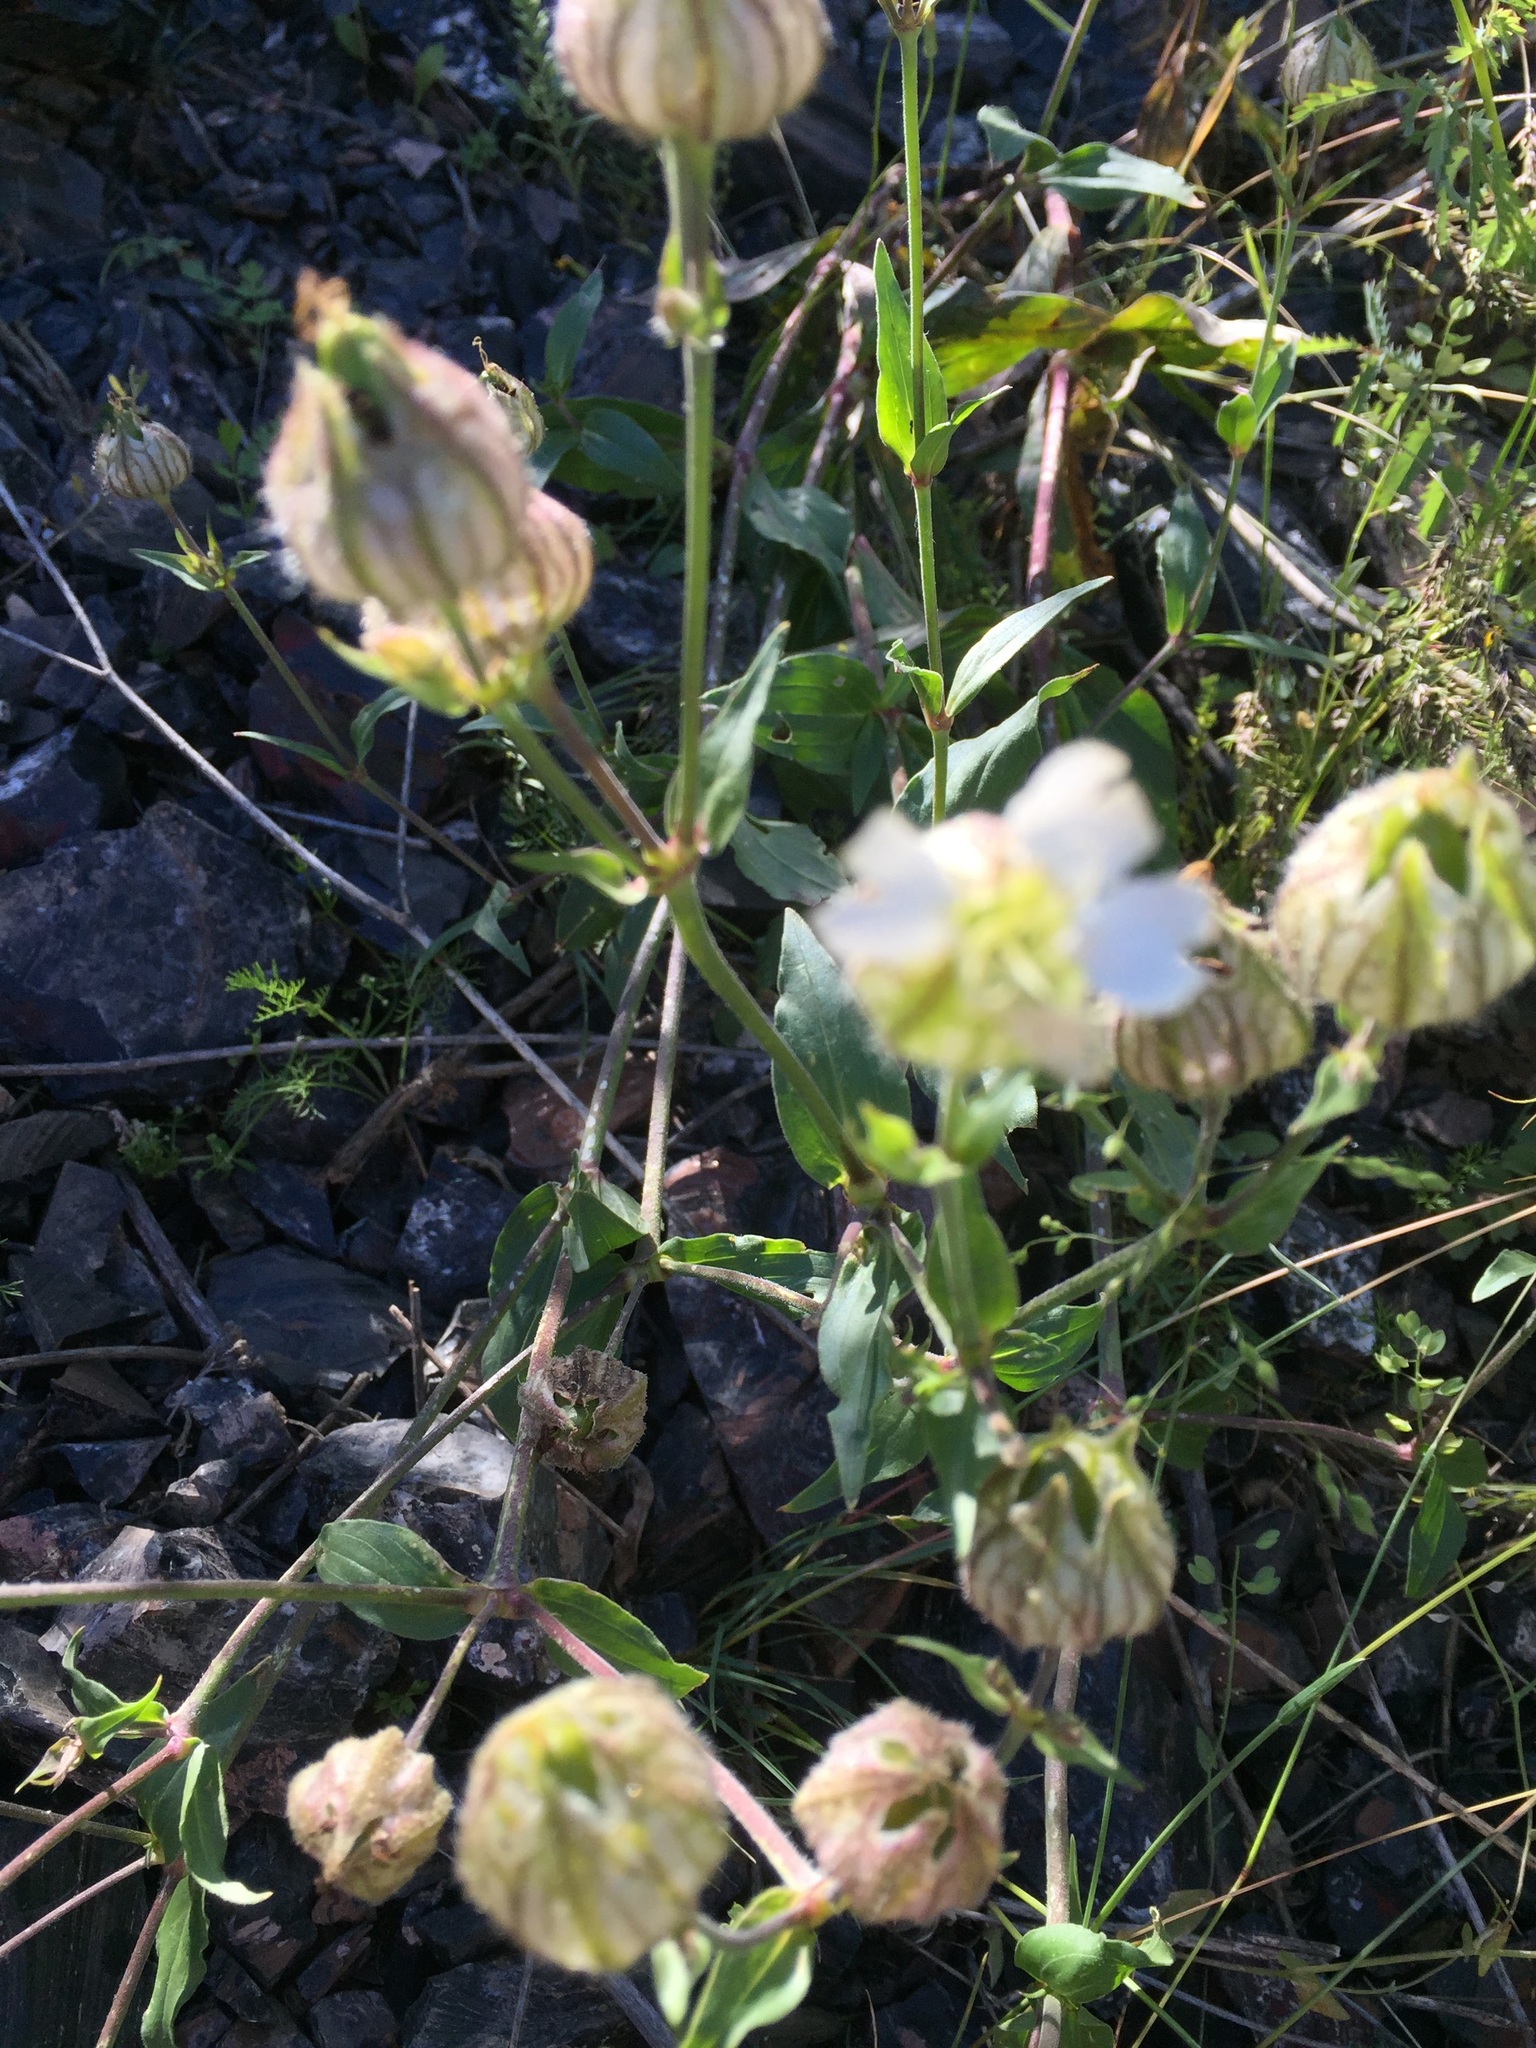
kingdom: Plantae
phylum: Tracheophyta
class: Magnoliopsida
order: Caryophyllales
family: Caryophyllaceae
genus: Silene
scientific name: Silene latifolia
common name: White campion
